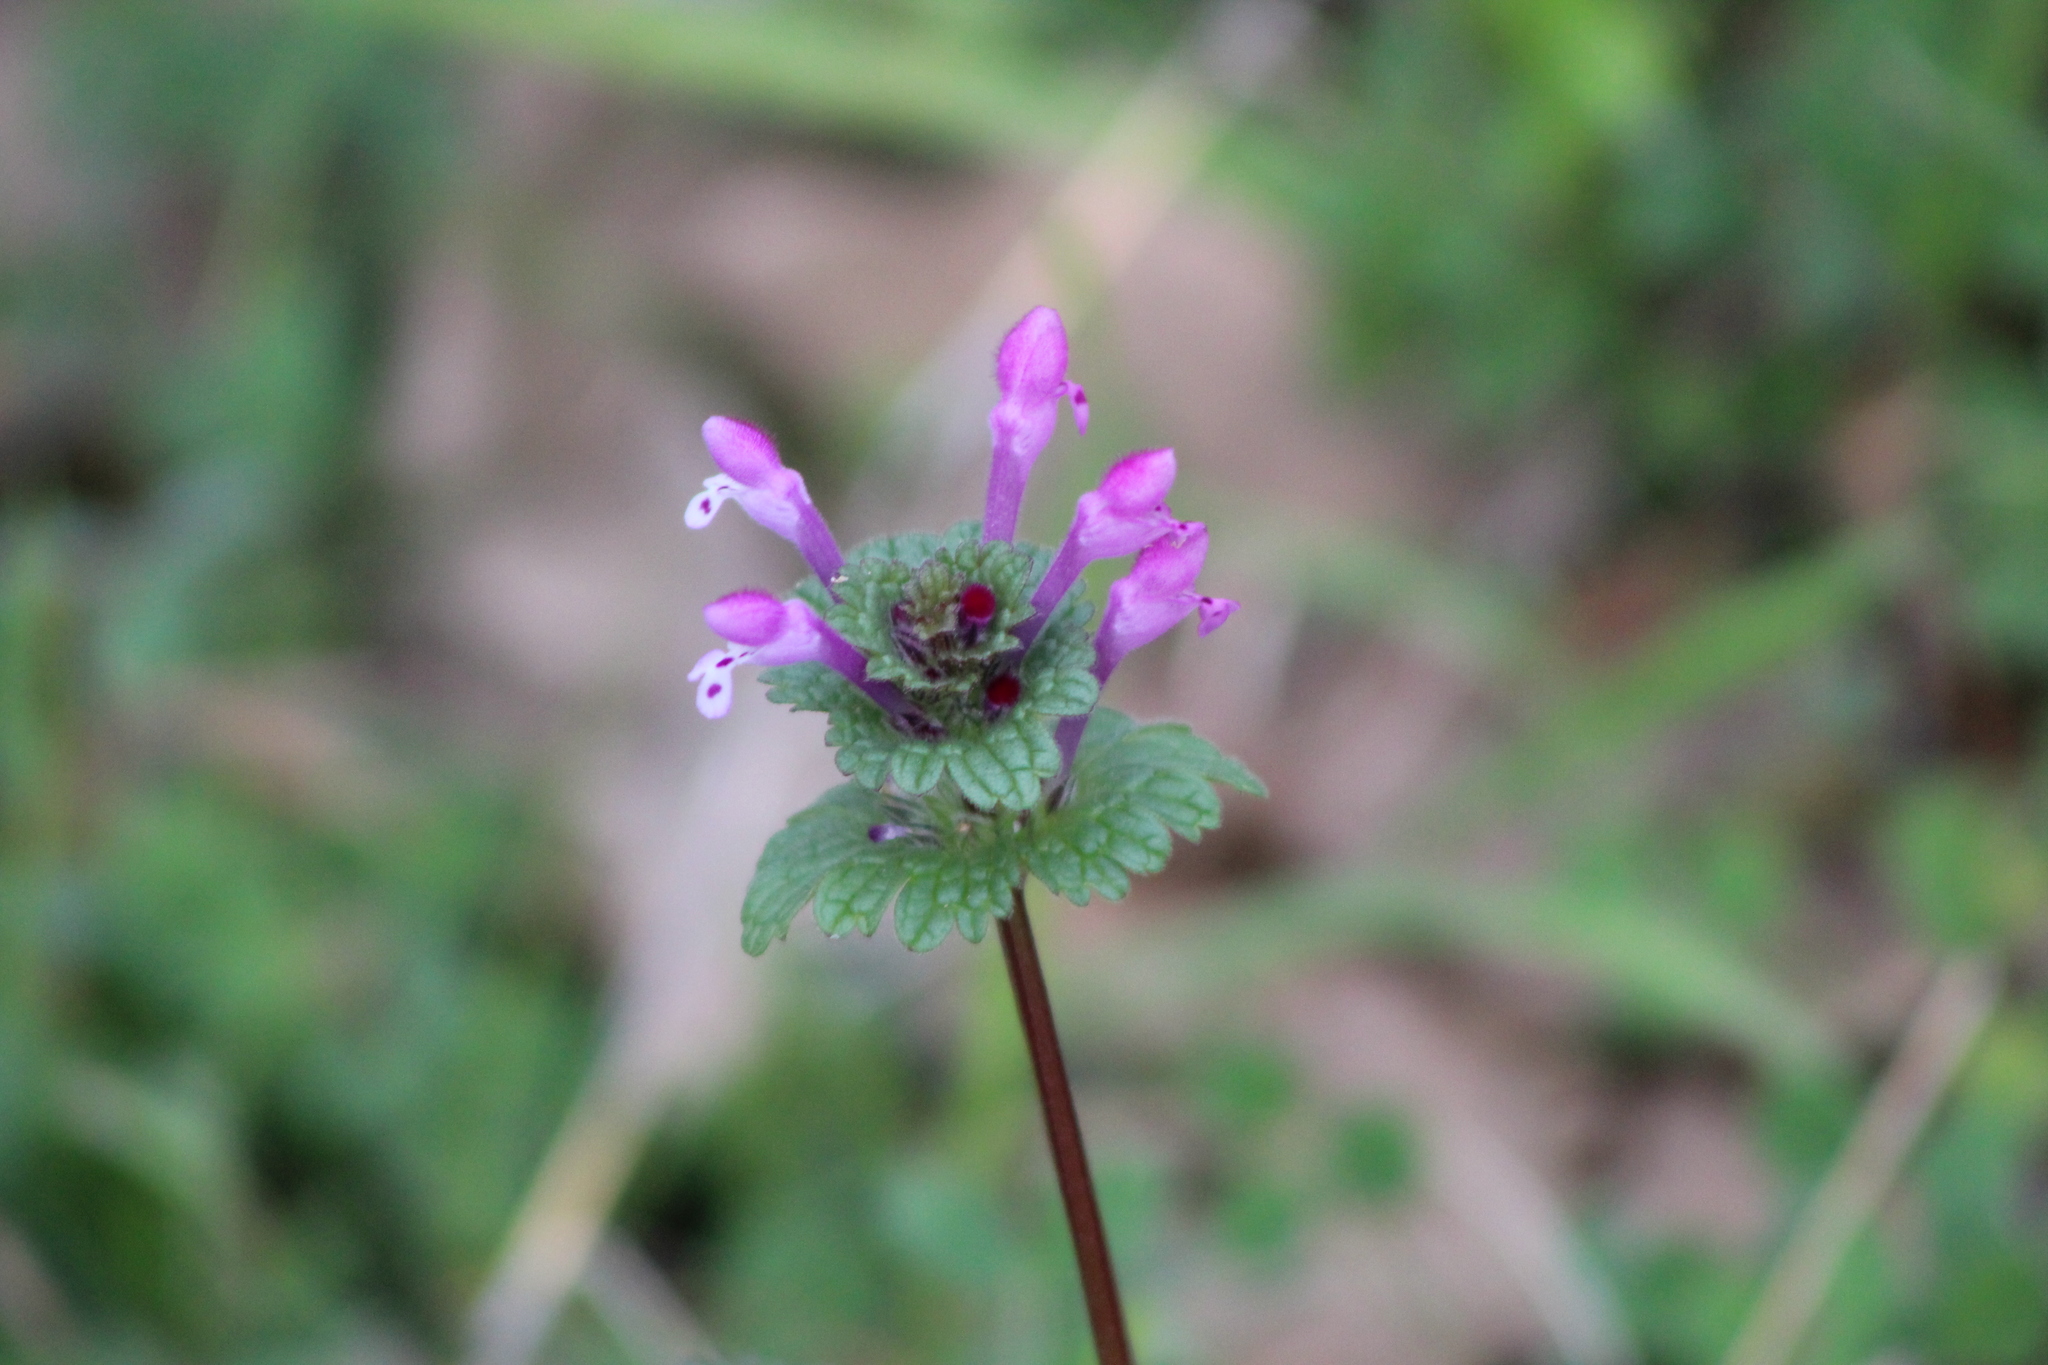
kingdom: Plantae
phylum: Tracheophyta
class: Magnoliopsida
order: Lamiales
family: Lamiaceae
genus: Lamium
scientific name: Lamium amplexicaule
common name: Henbit dead-nettle
